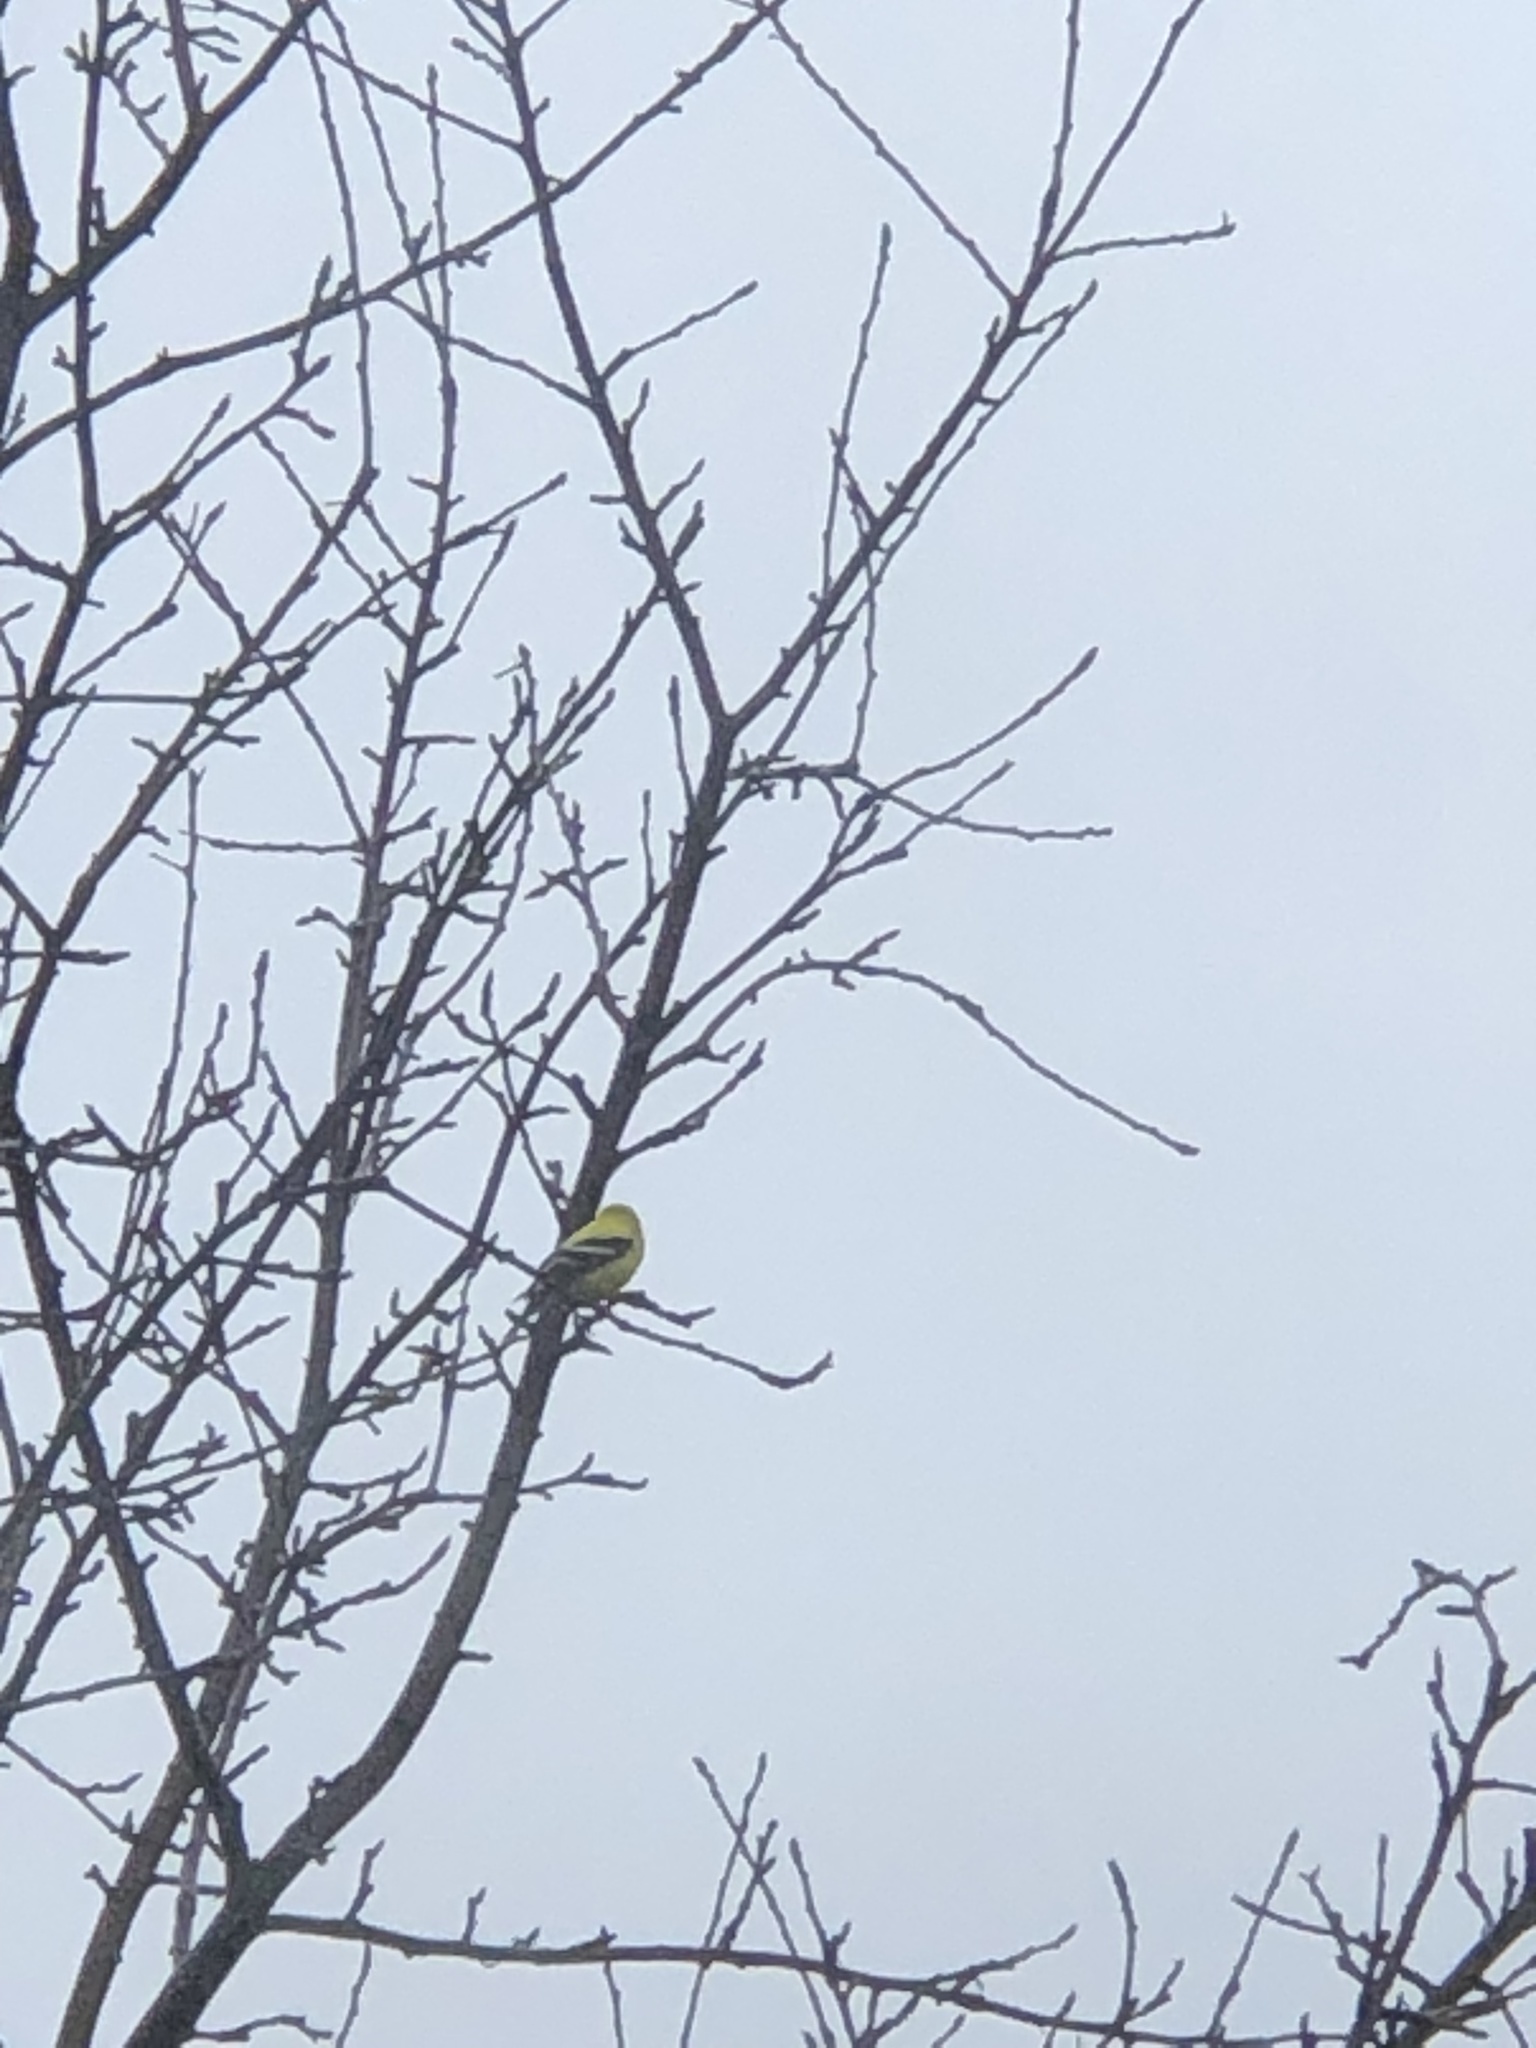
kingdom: Animalia
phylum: Chordata
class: Aves
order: Passeriformes
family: Fringillidae
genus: Spinus
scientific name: Spinus tristis
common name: American goldfinch
